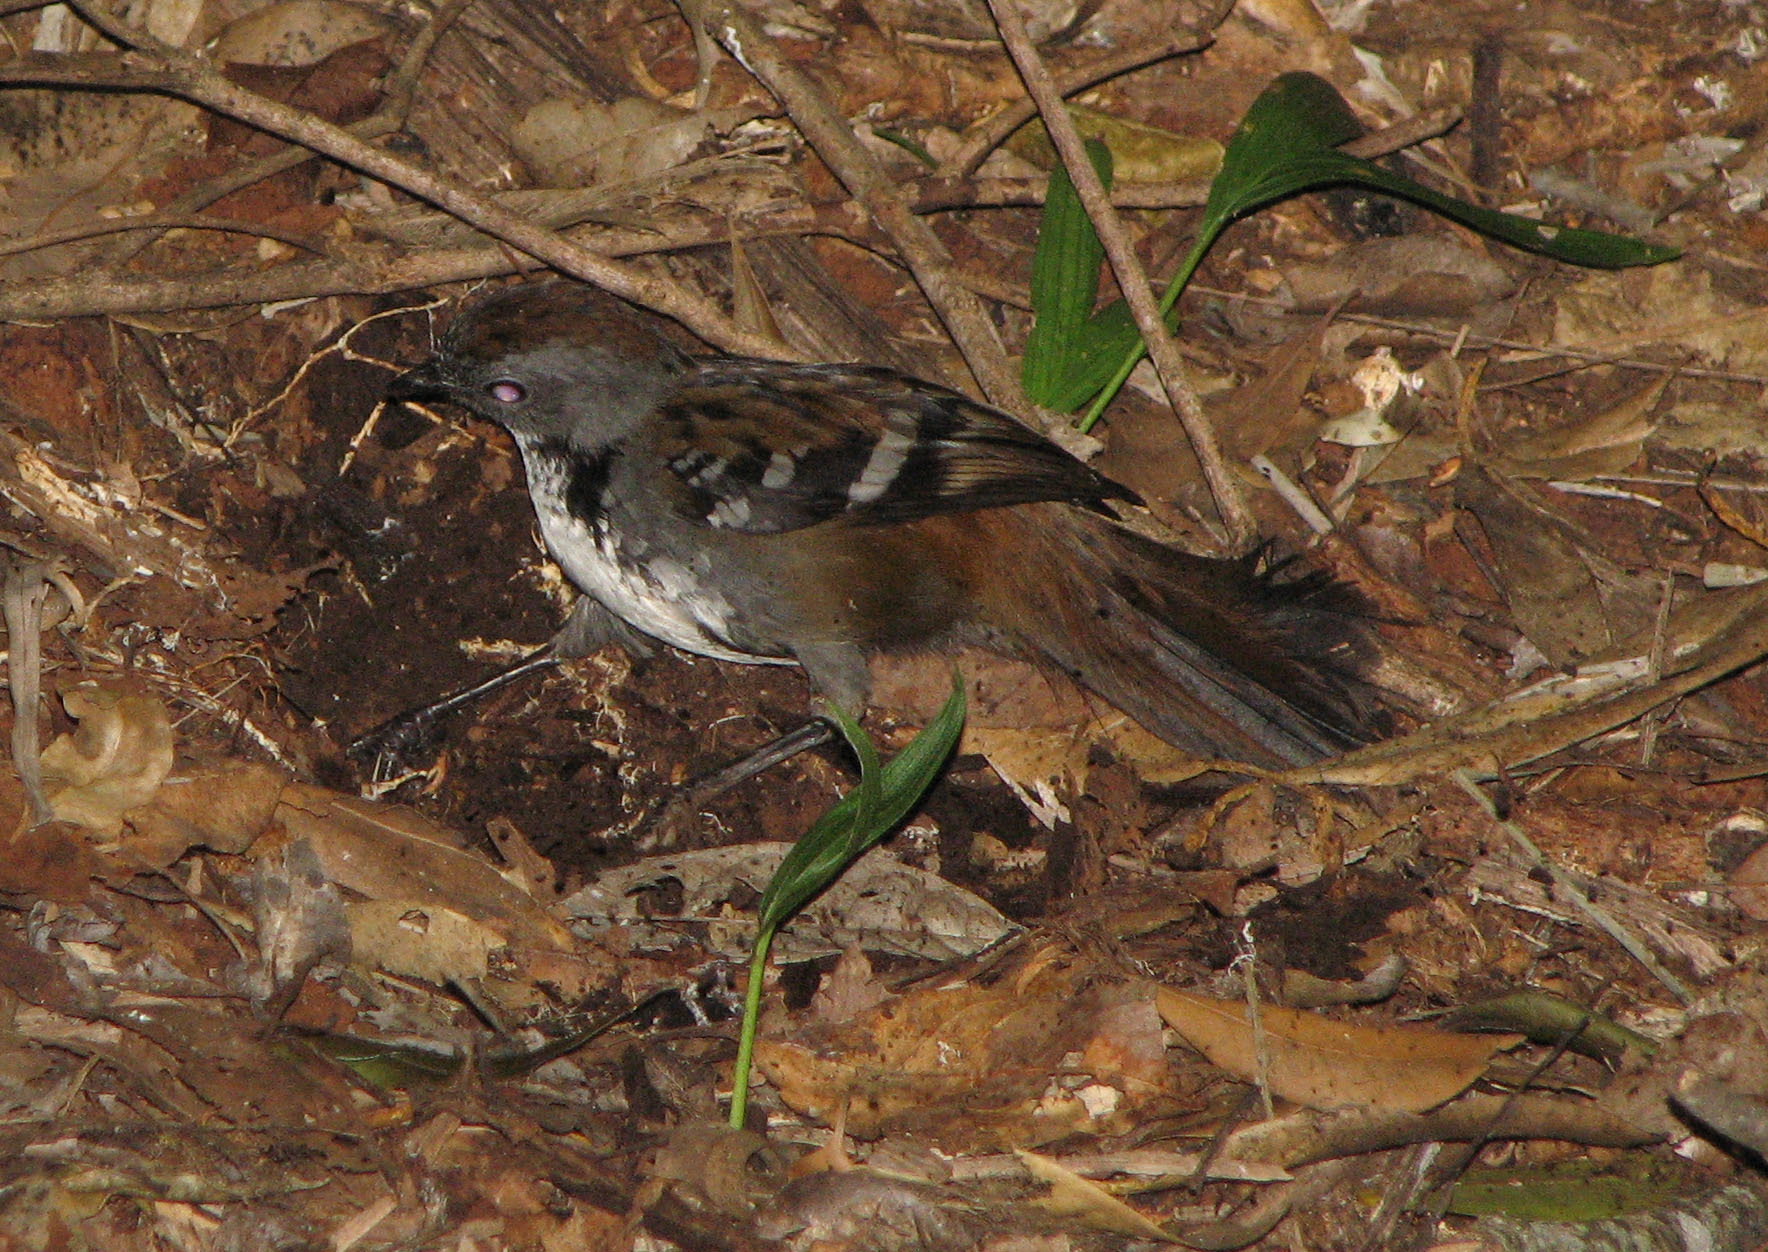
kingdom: Animalia
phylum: Chordata
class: Aves
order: Passeriformes
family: Orthonychidae
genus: Orthonyx
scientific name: Orthonyx temminckii
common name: Australian logrunner
